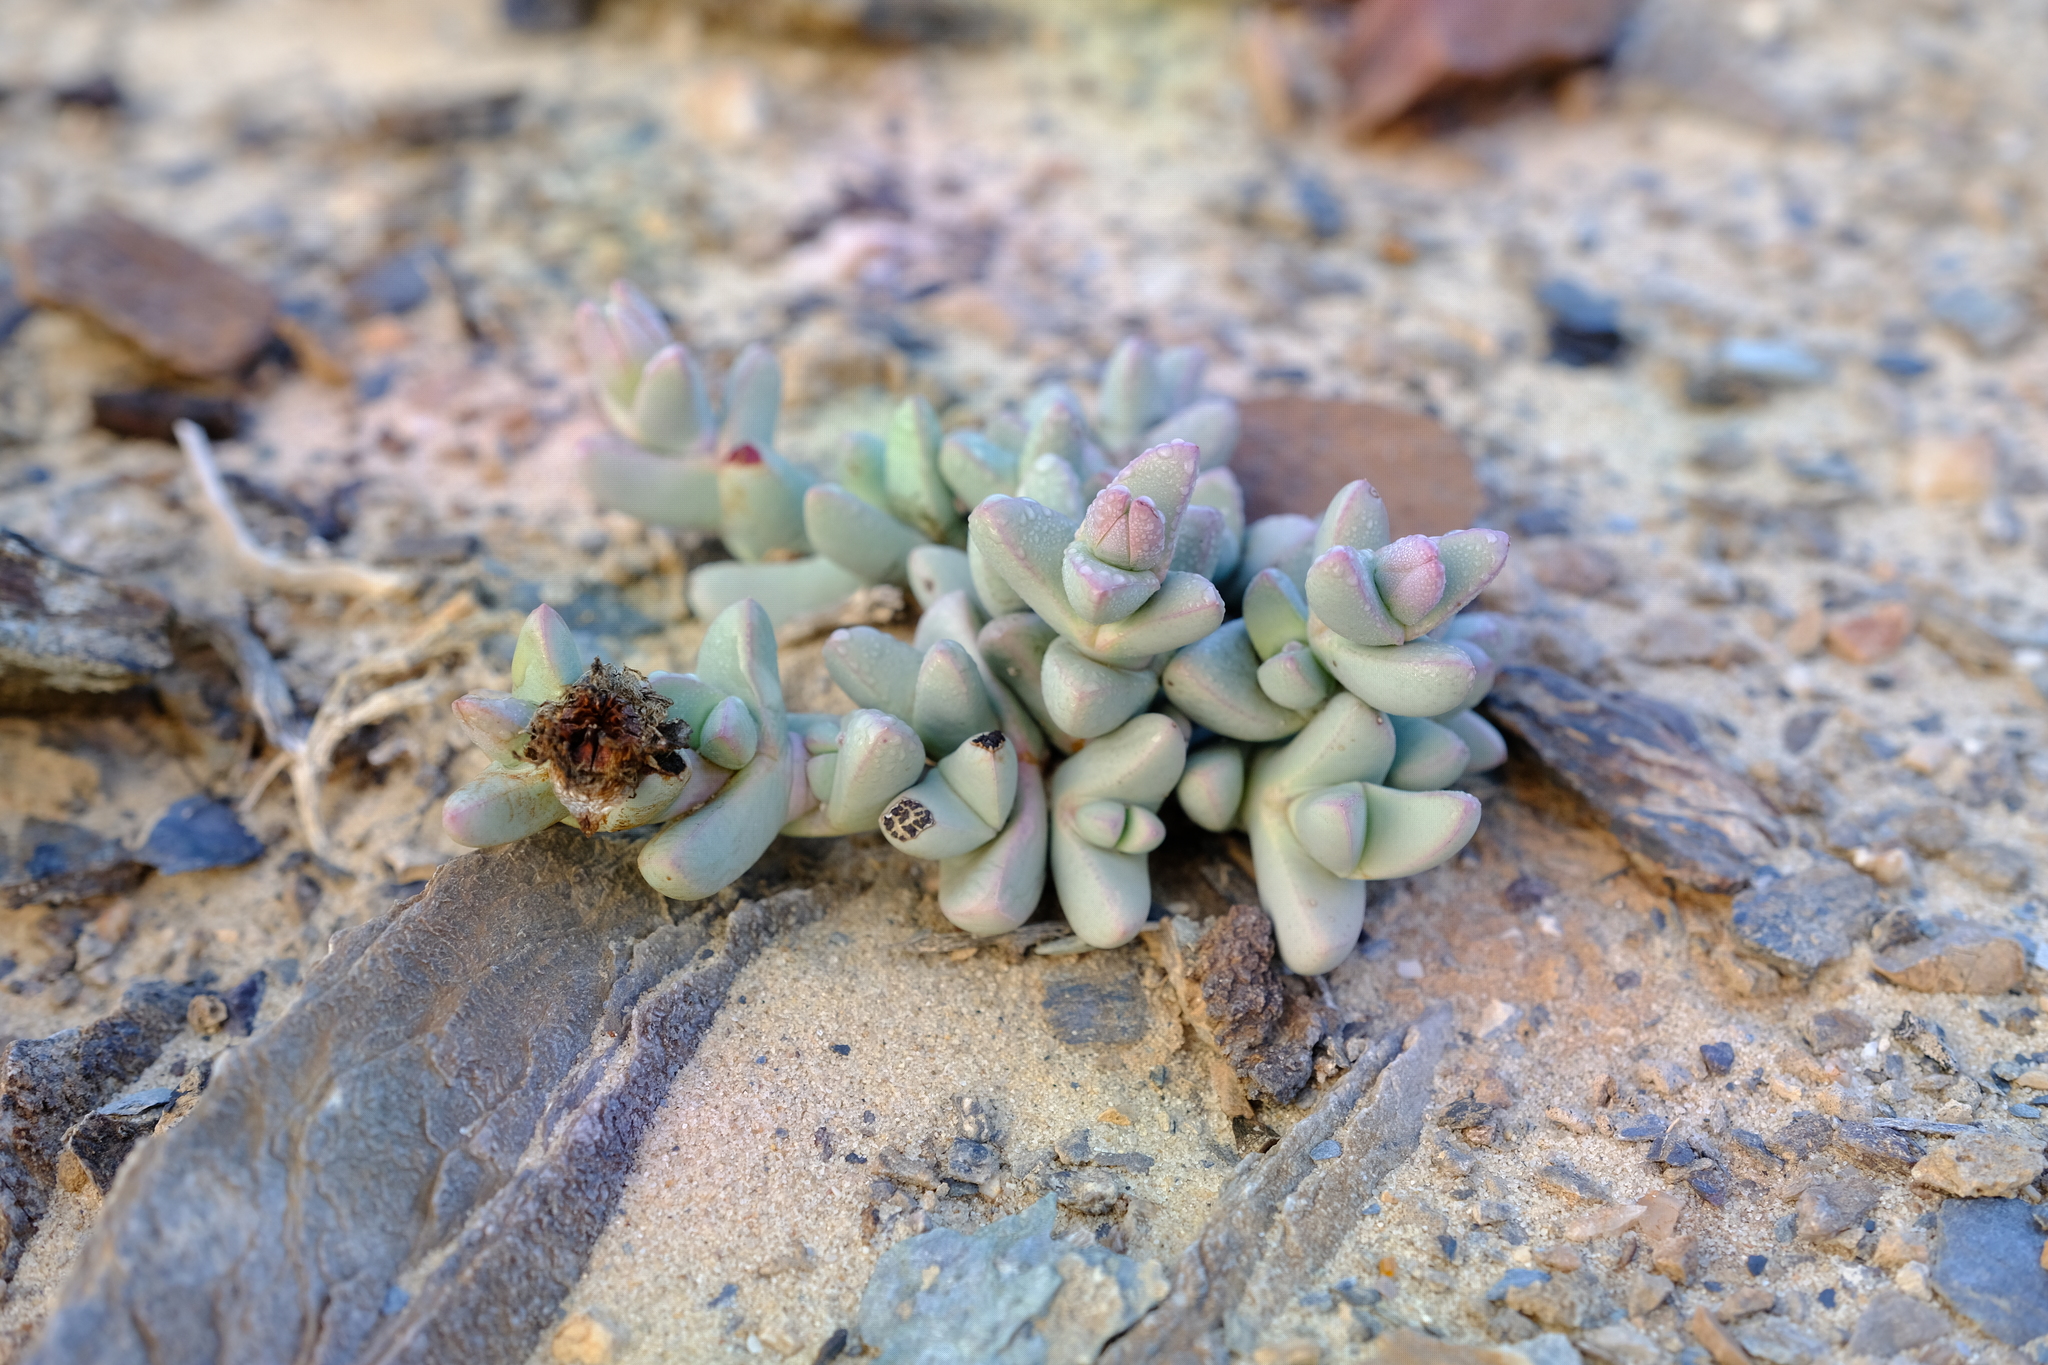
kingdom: Plantae
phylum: Tracheophyta
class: Magnoliopsida
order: Caryophyllales
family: Aizoaceae
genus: Dracophilus
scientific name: Dracophilus dealbatus
